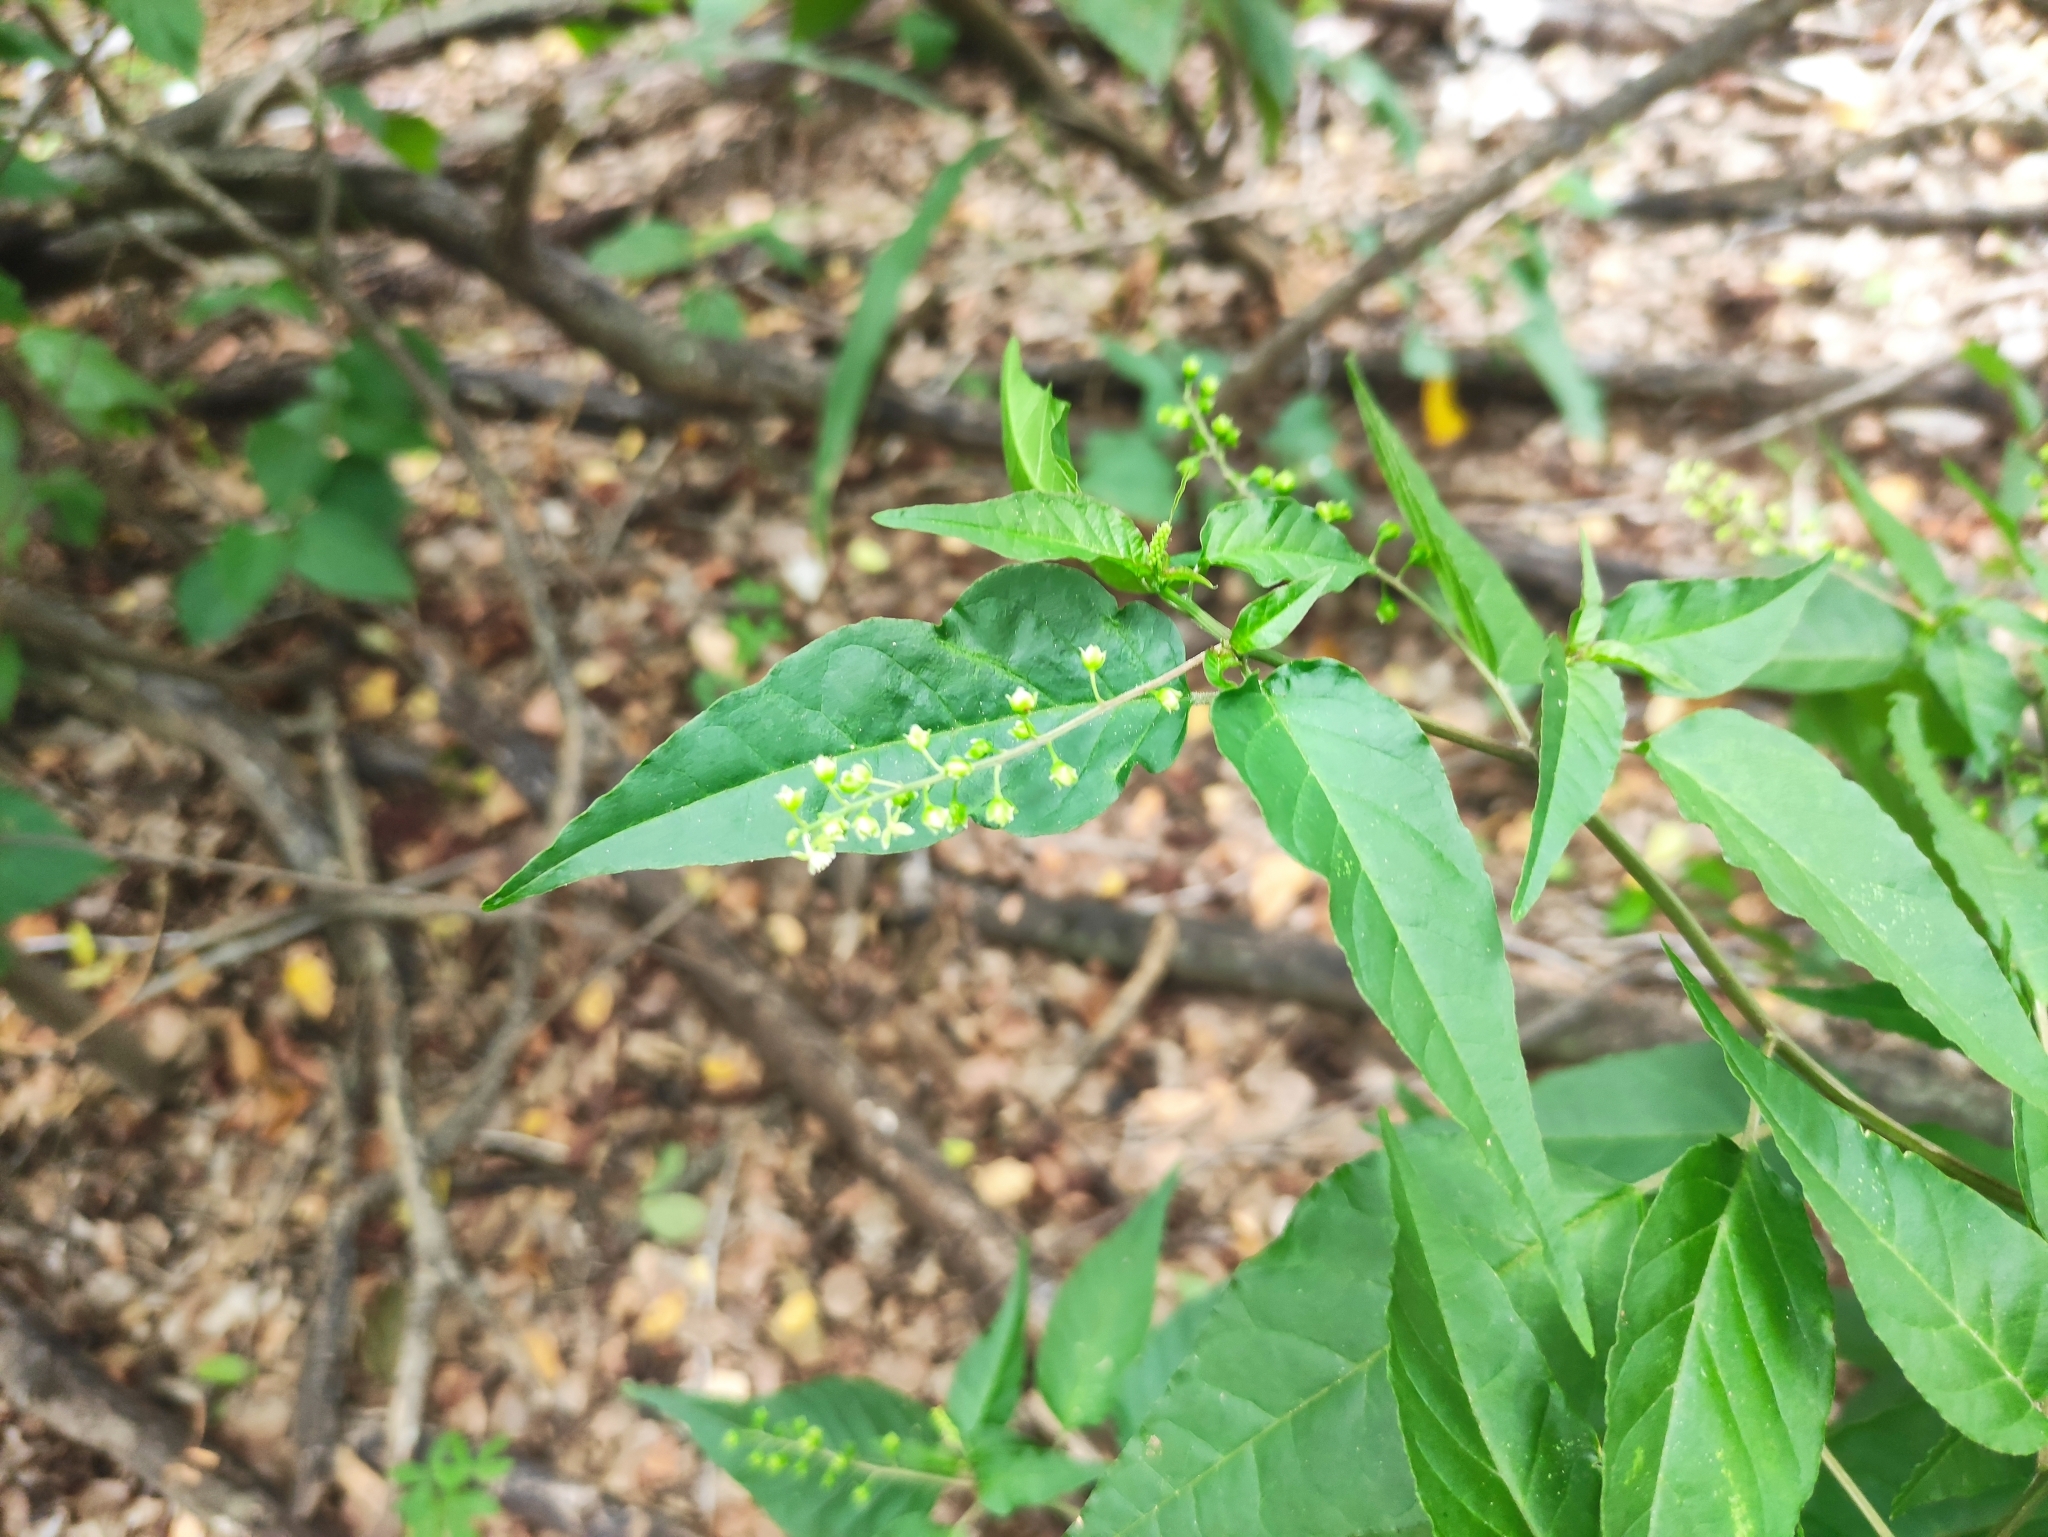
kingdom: Plantae
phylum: Tracheophyta
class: Magnoliopsida
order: Caryophyllales
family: Phytolaccaceae
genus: Rivina
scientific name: Rivina humilis
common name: Rougeplant
